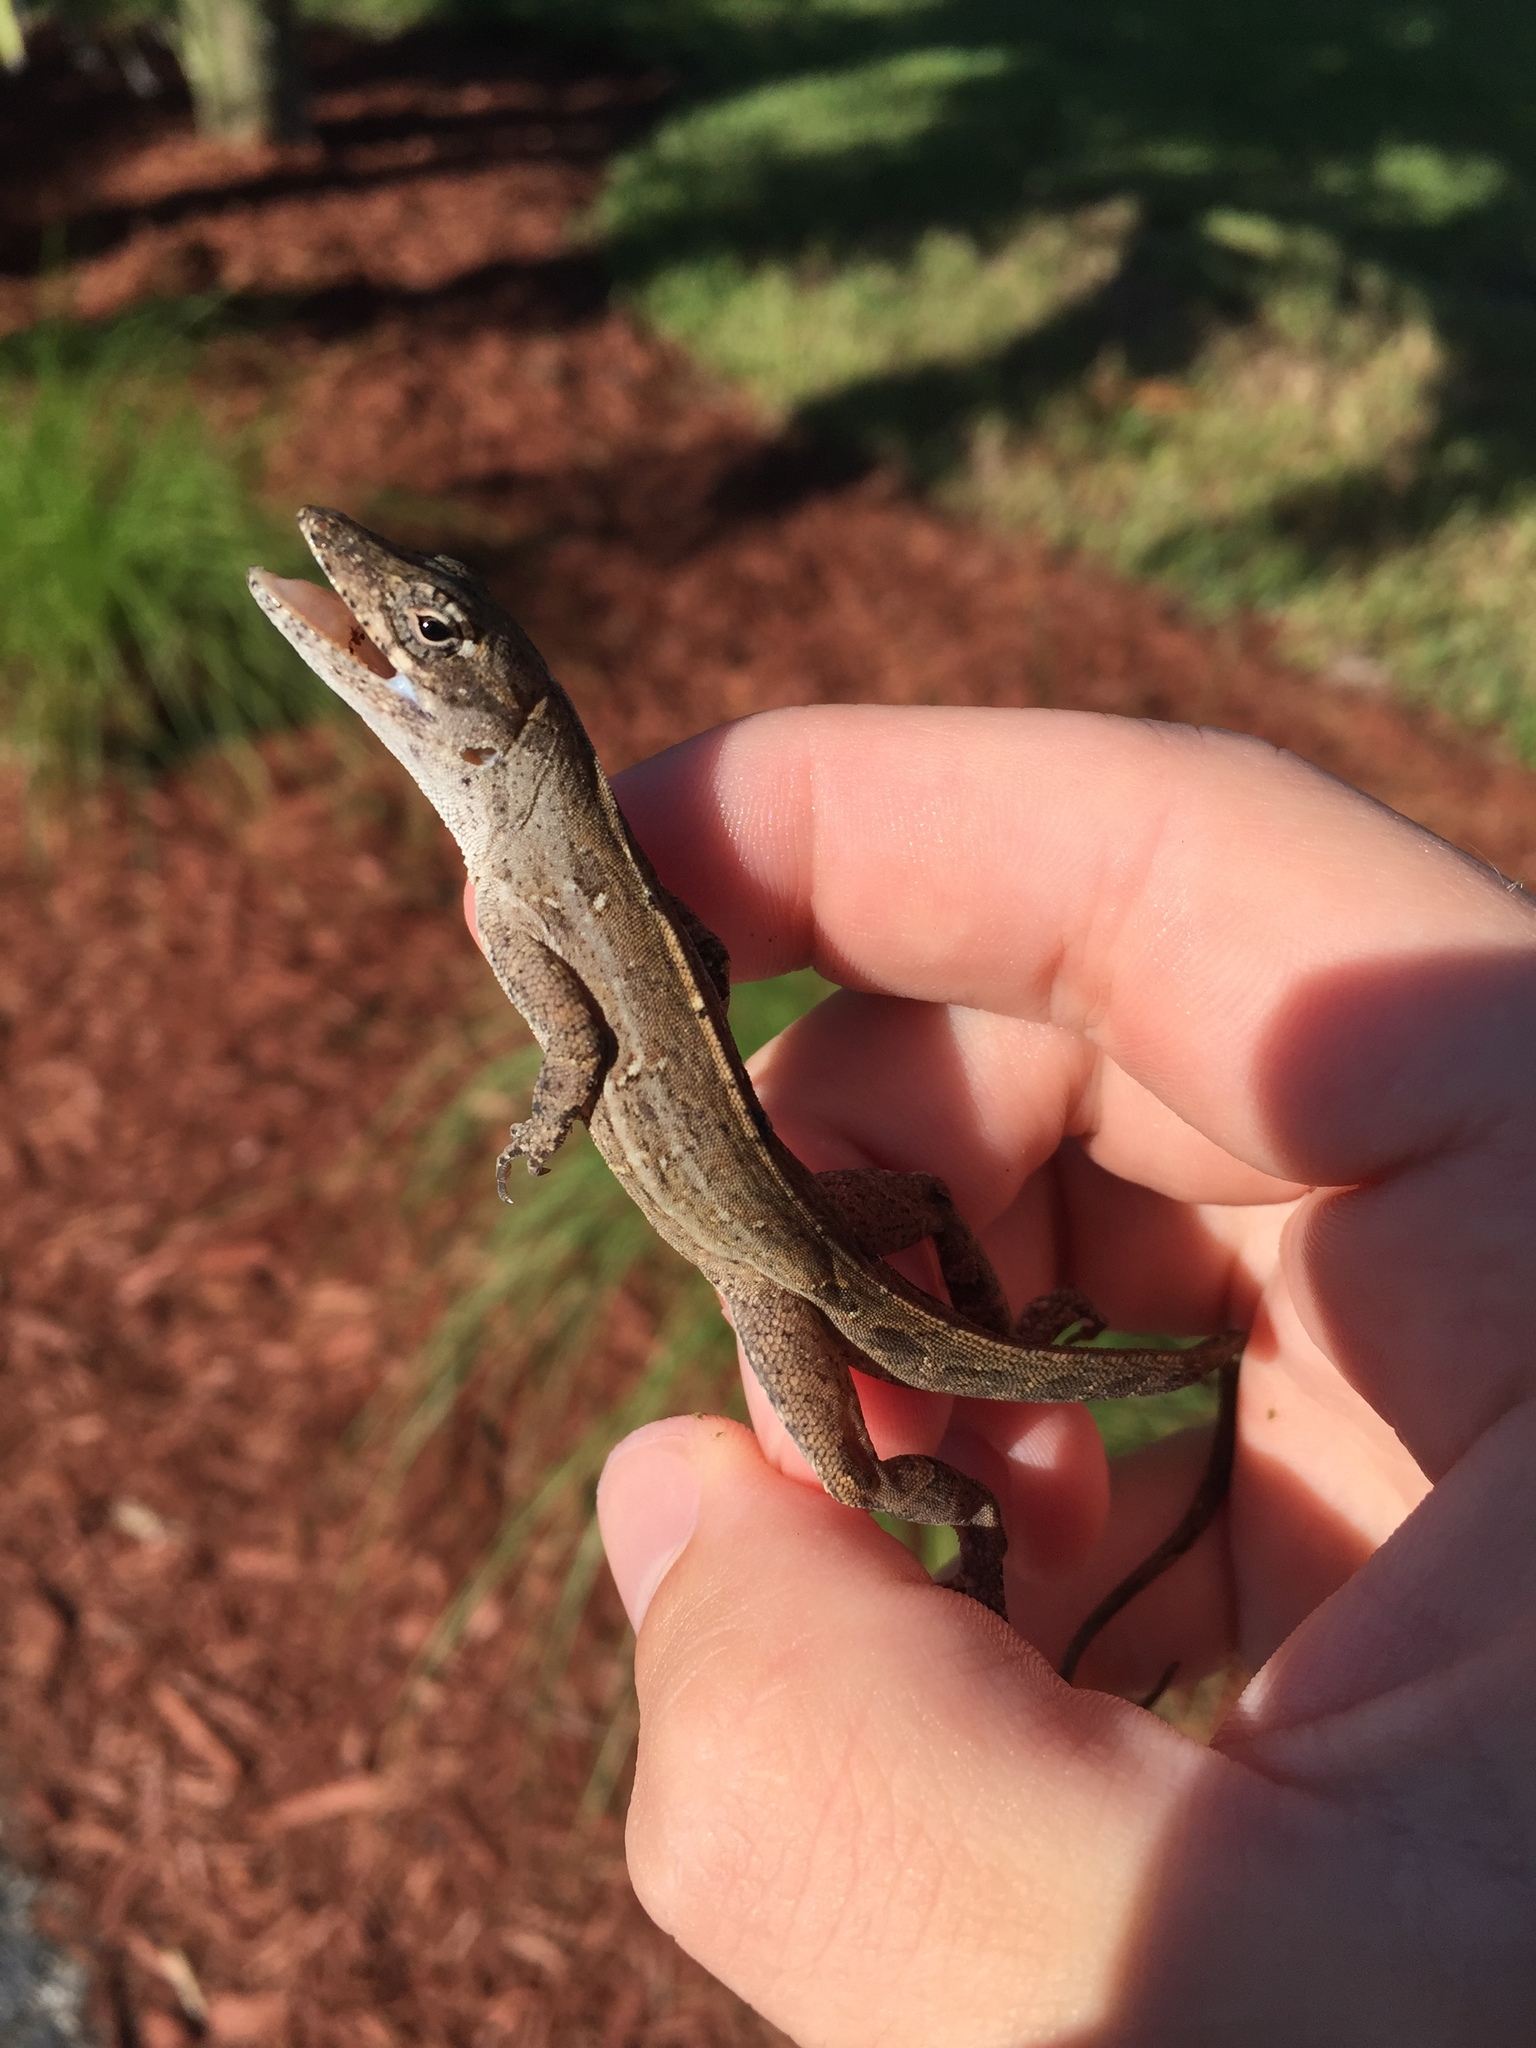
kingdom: Animalia
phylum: Chordata
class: Squamata
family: Dactyloidae
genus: Anolis
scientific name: Anolis sagrei
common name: Brown anole
